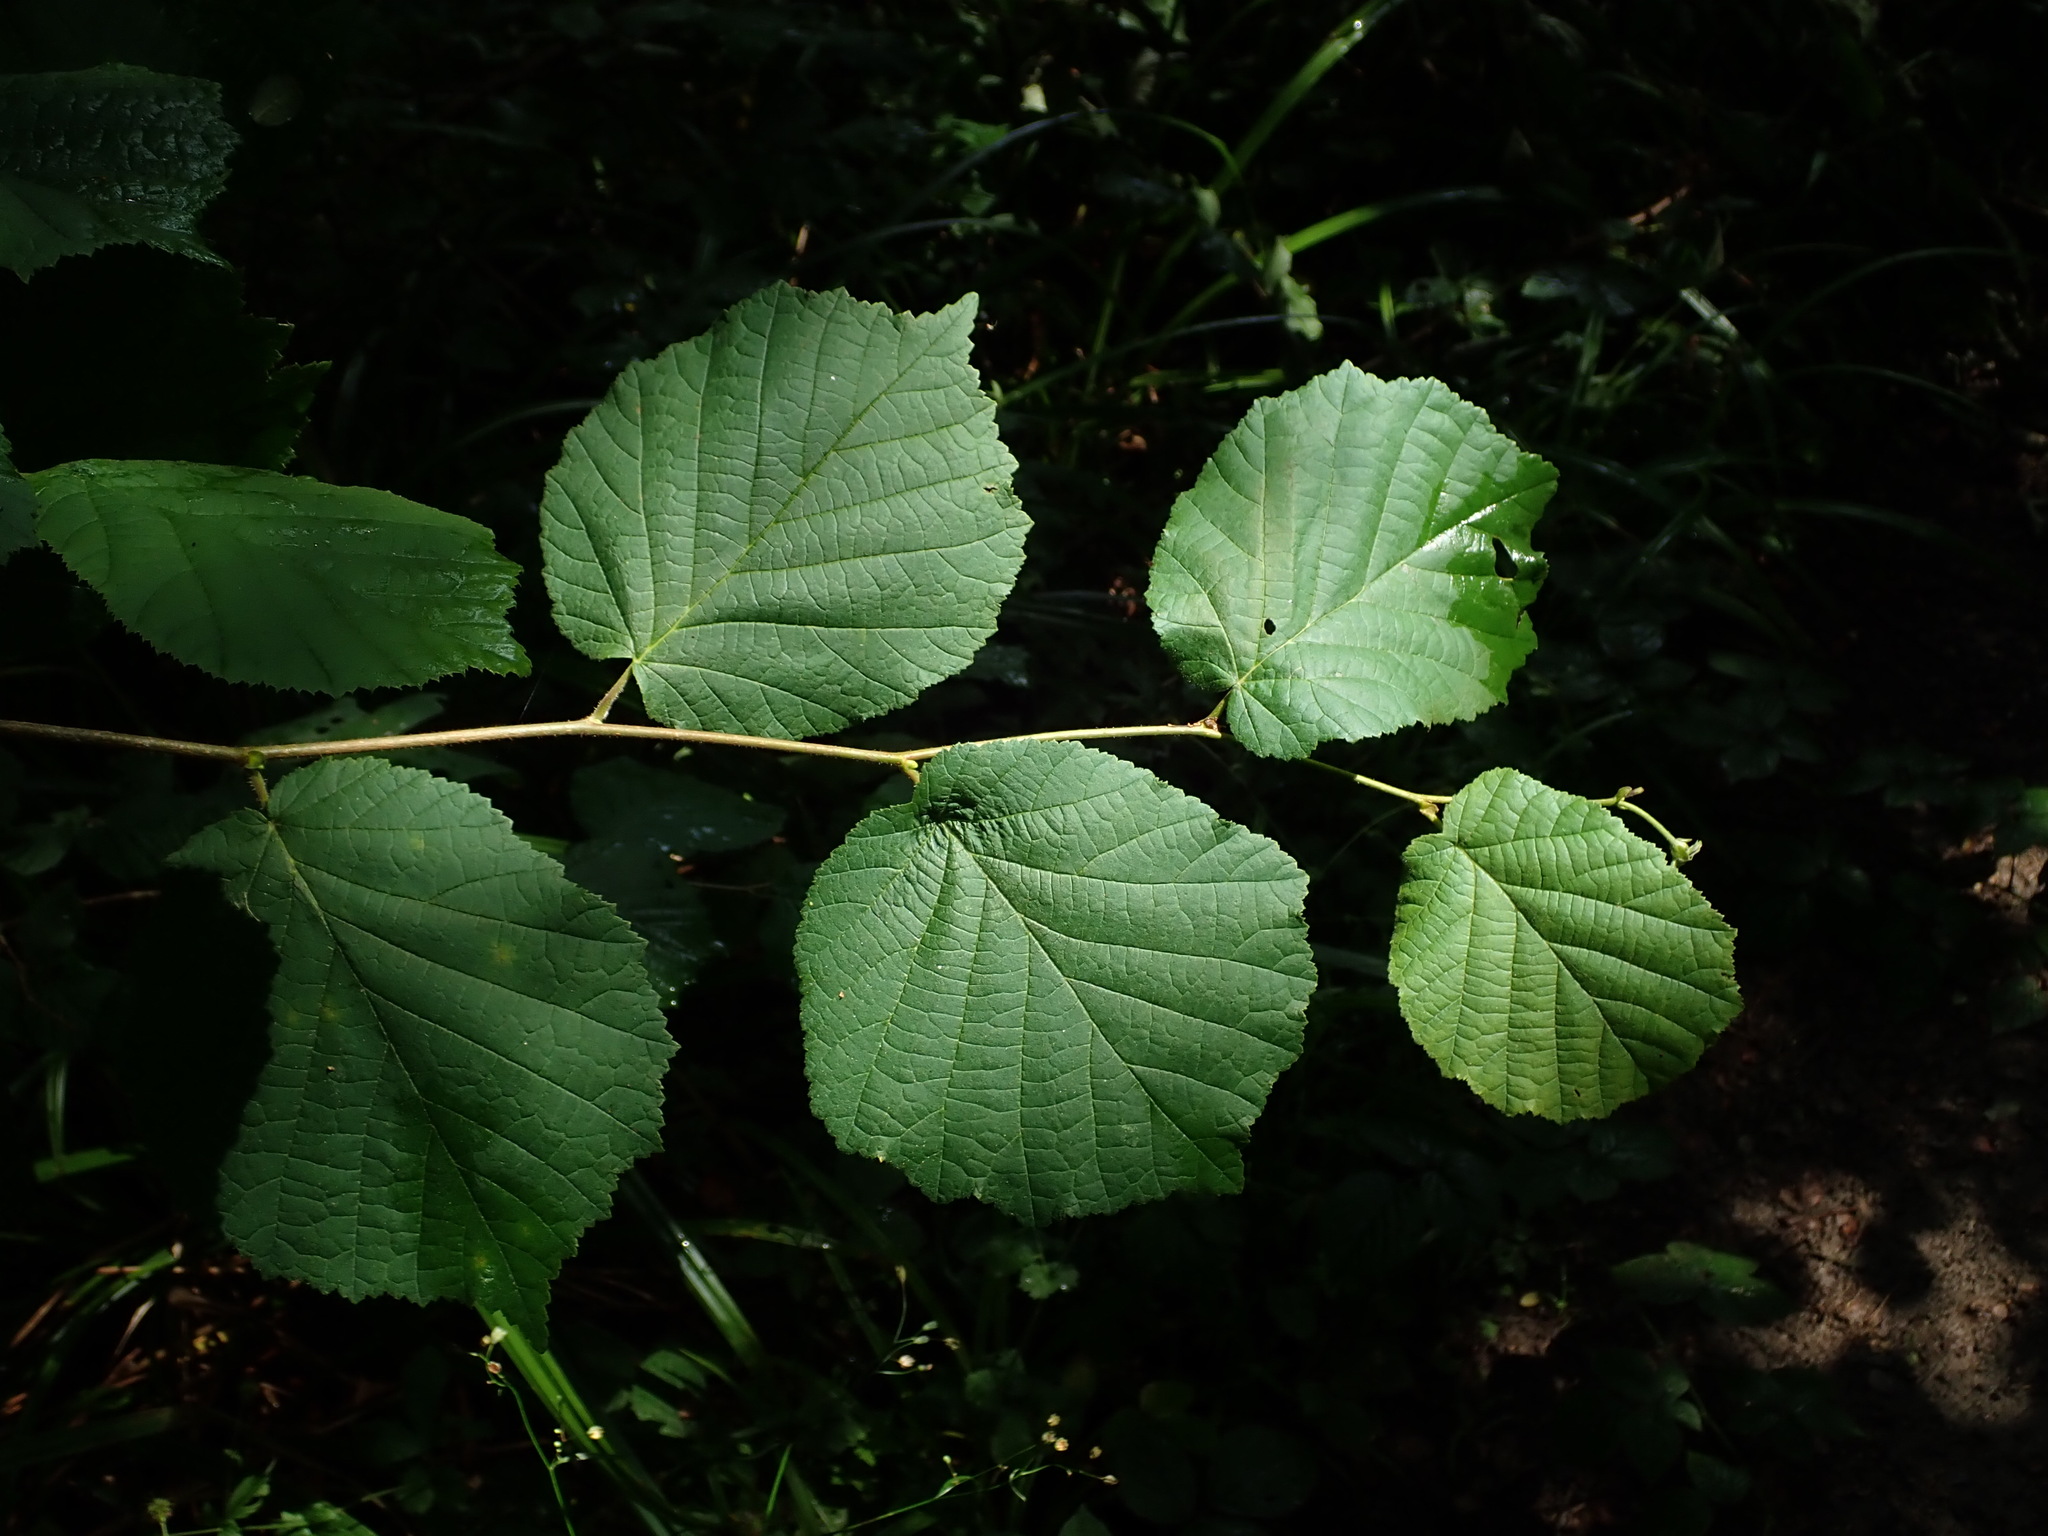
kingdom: Plantae
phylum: Tracheophyta
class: Magnoliopsida
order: Fagales
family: Betulaceae
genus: Corylus
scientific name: Corylus avellana
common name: European hazel
